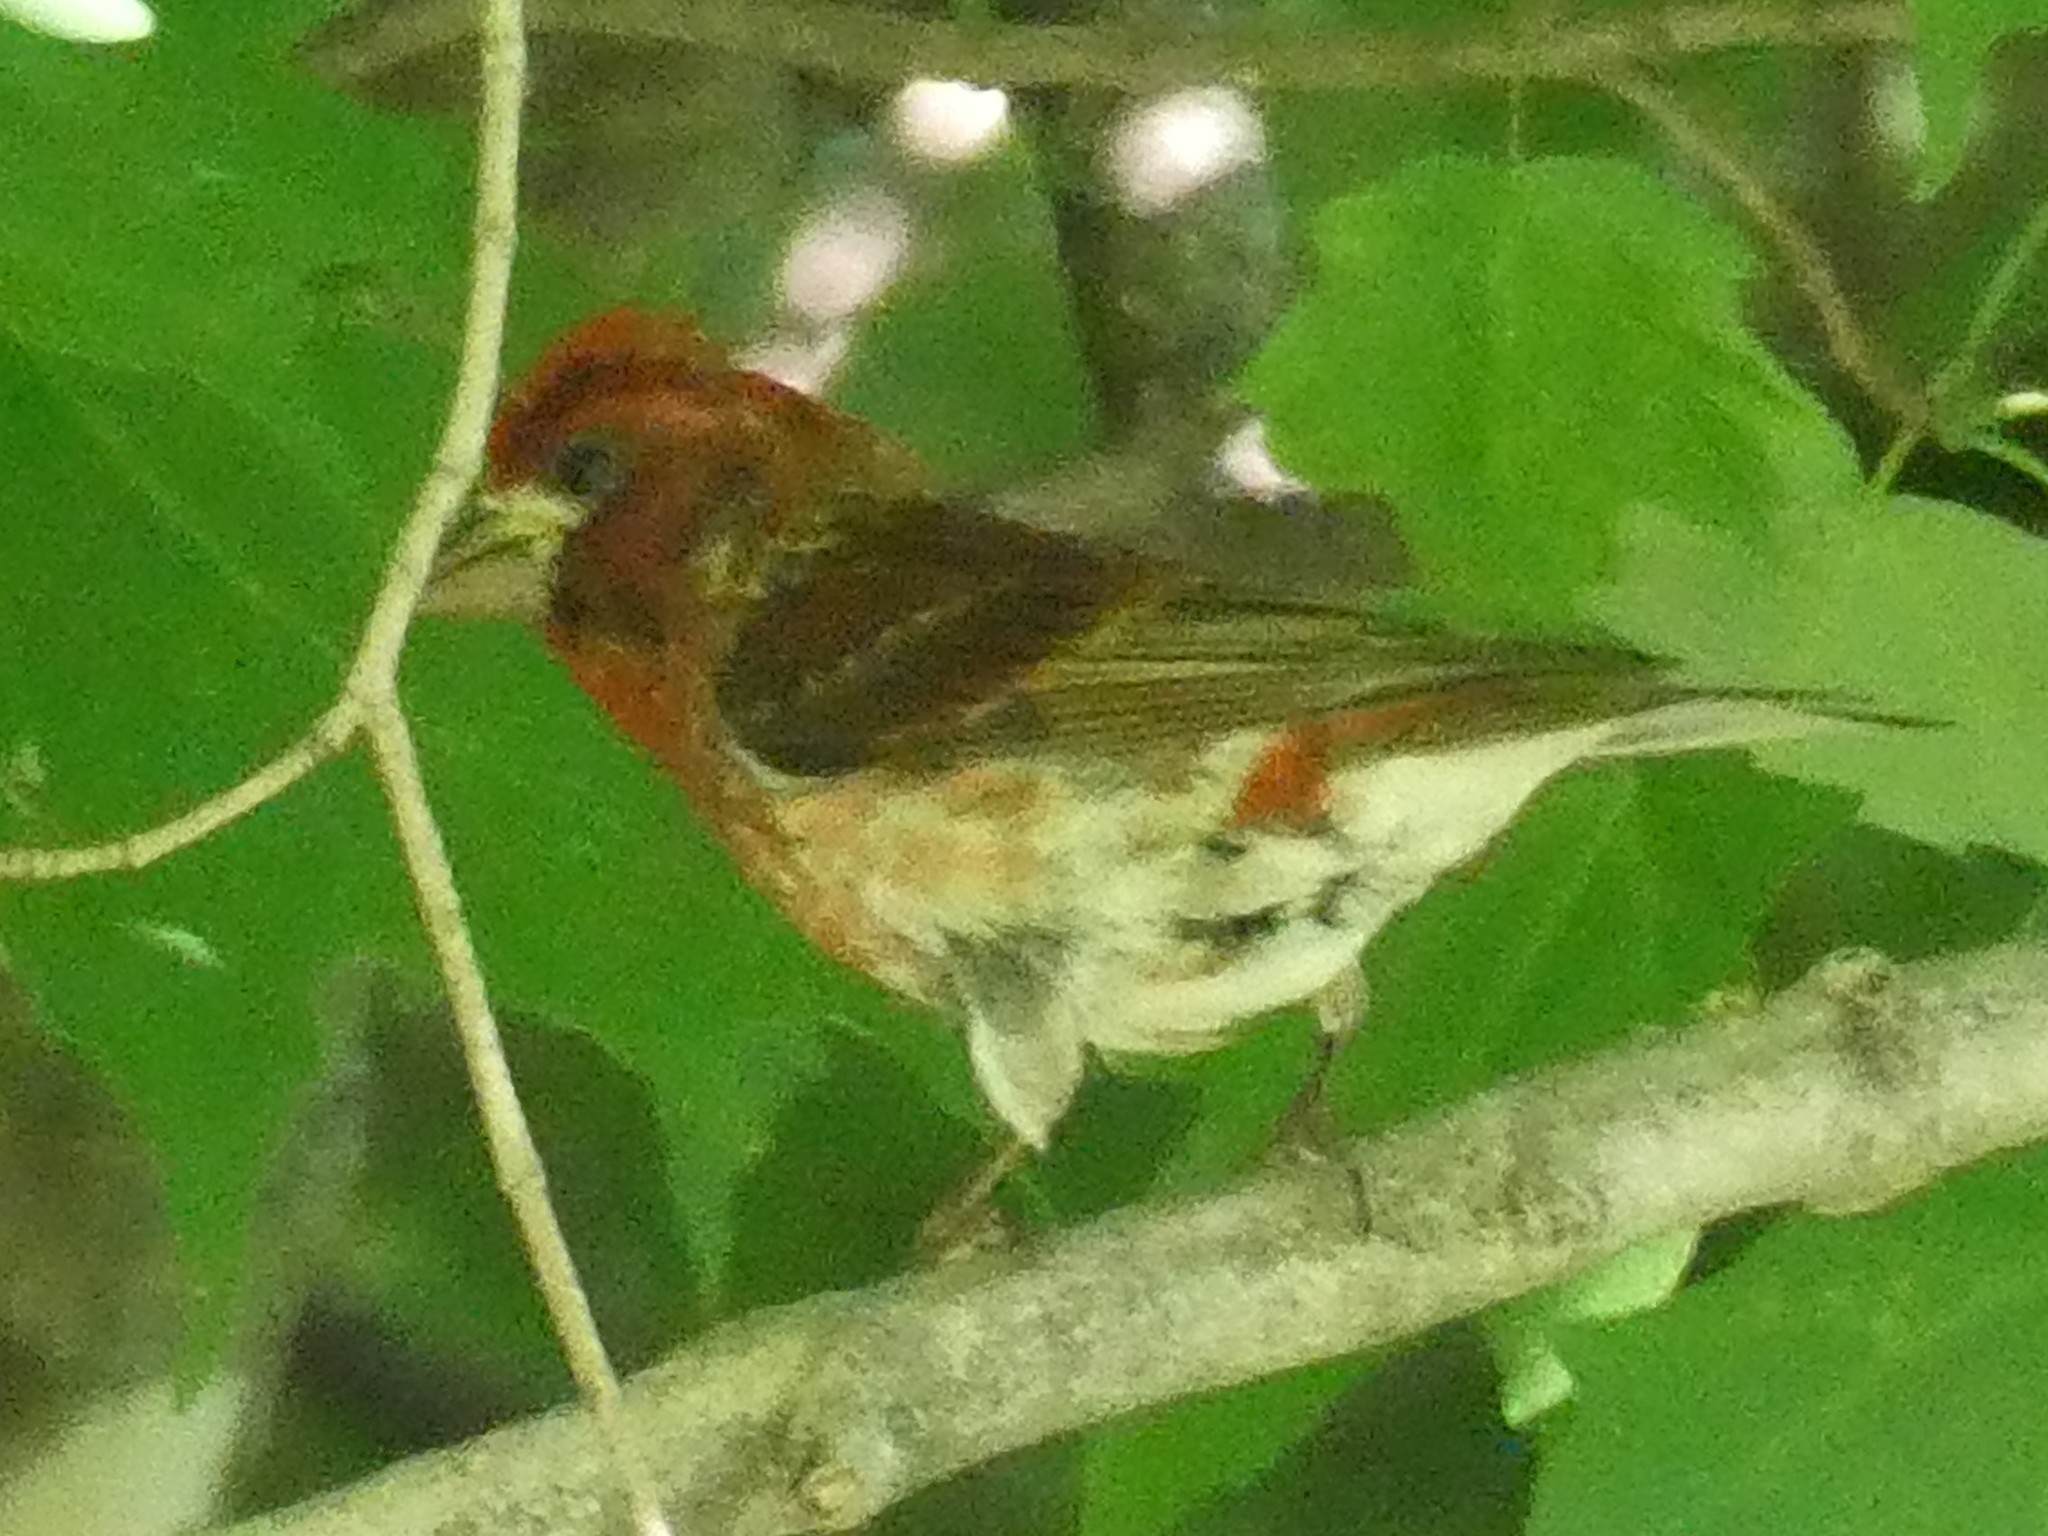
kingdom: Animalia
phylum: Chordata
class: Aves
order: Passeriformes
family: Fringillidae
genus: Haemorhous
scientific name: Haemorhous purpureus
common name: Purple finch
